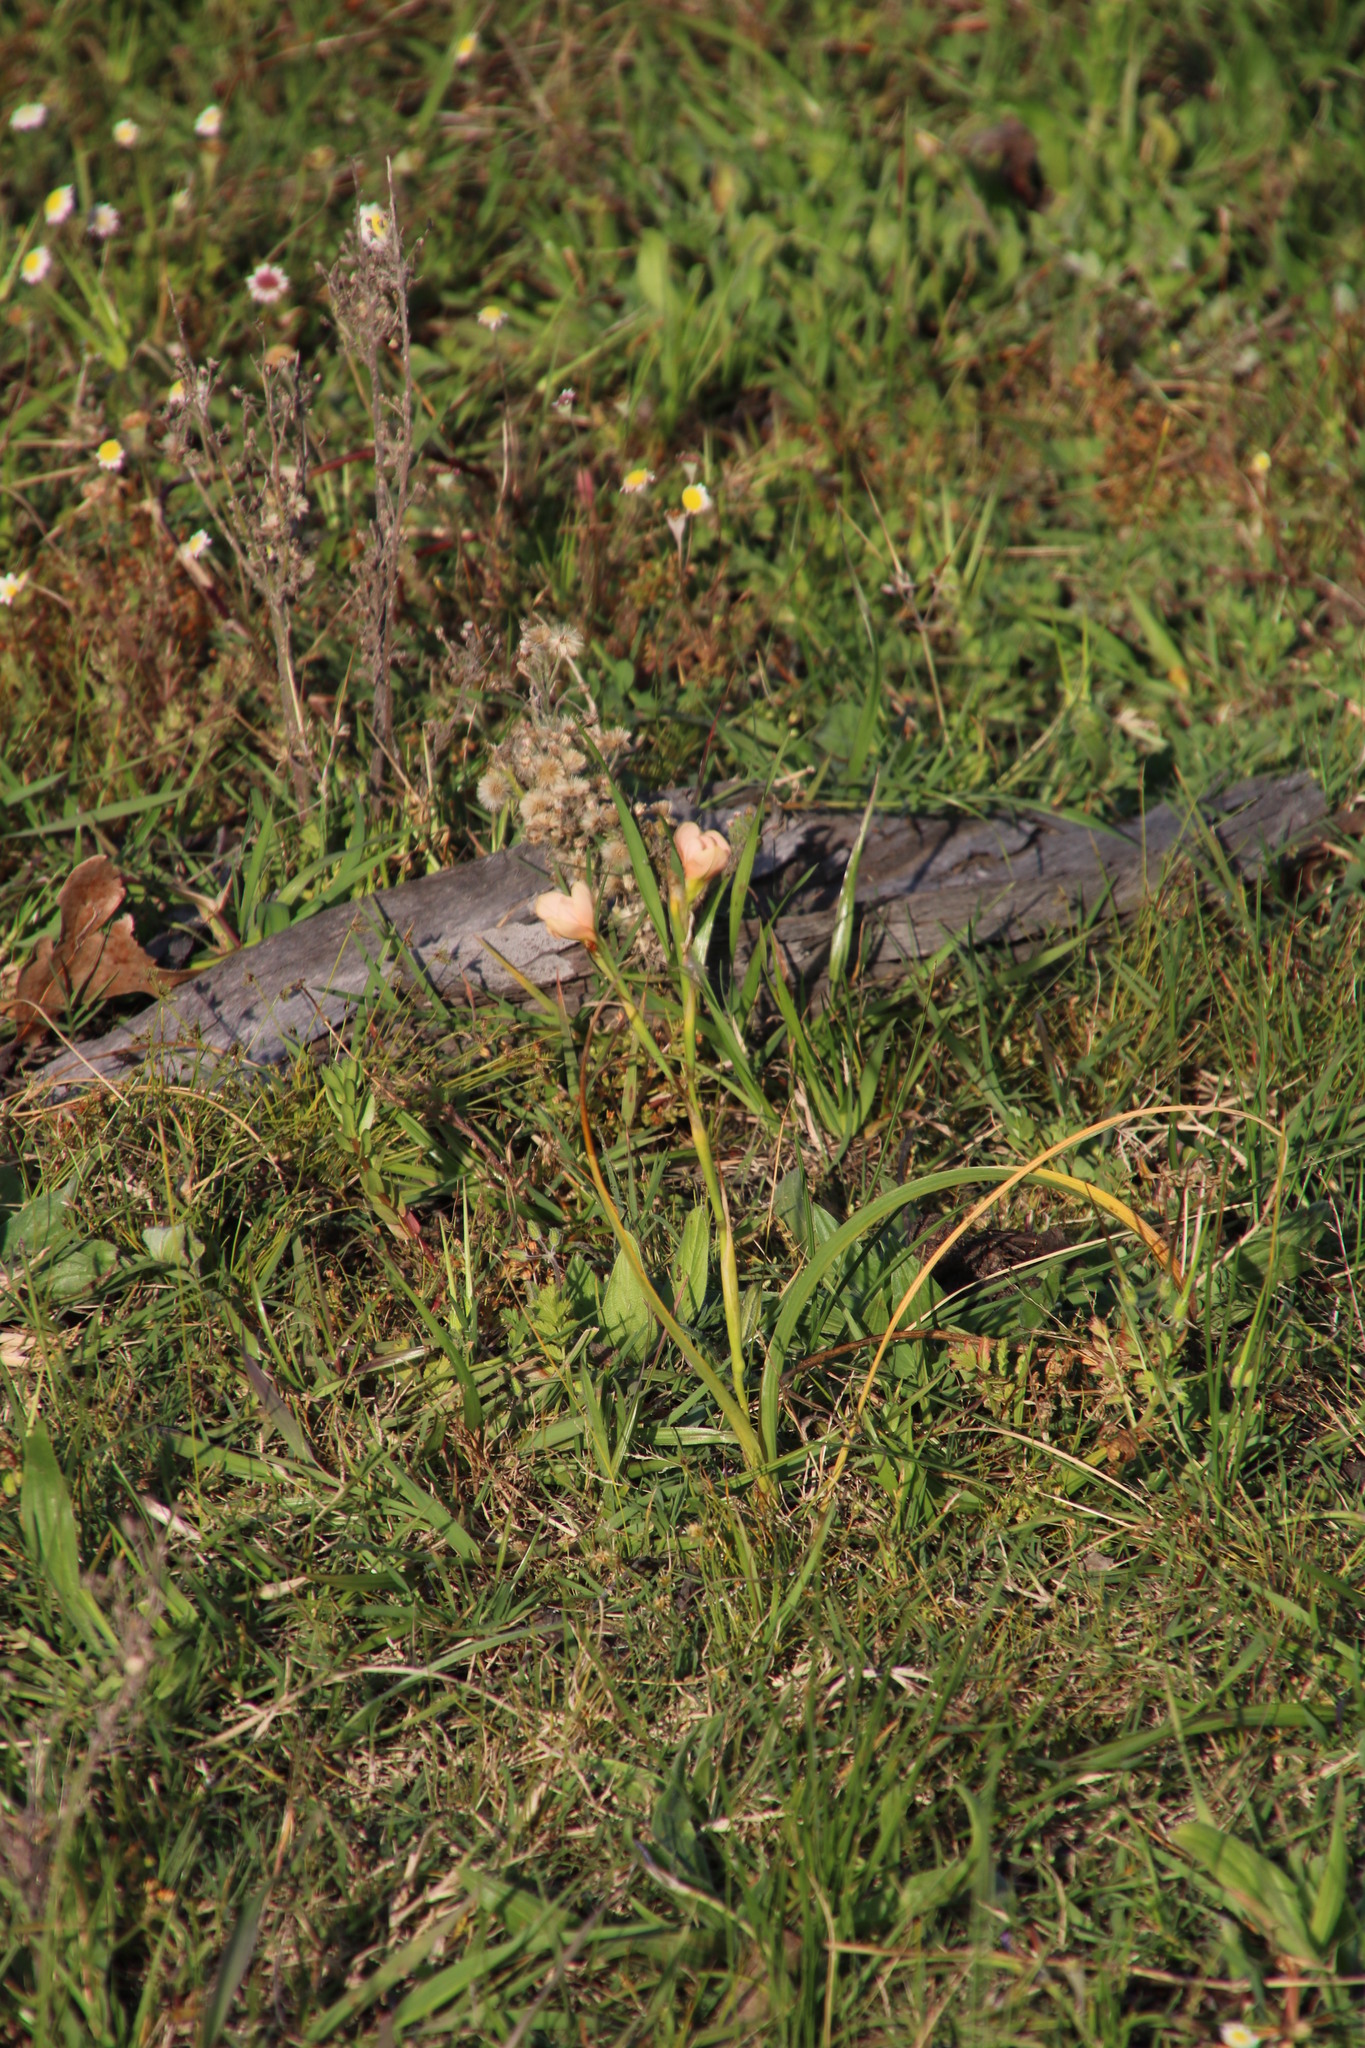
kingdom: Plantae
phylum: Tracheophyta
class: Liliopsida
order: Asparagales
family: Iridaceae
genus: Moraea
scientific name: Moraea miniata
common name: Two-leaf cape-tulip
